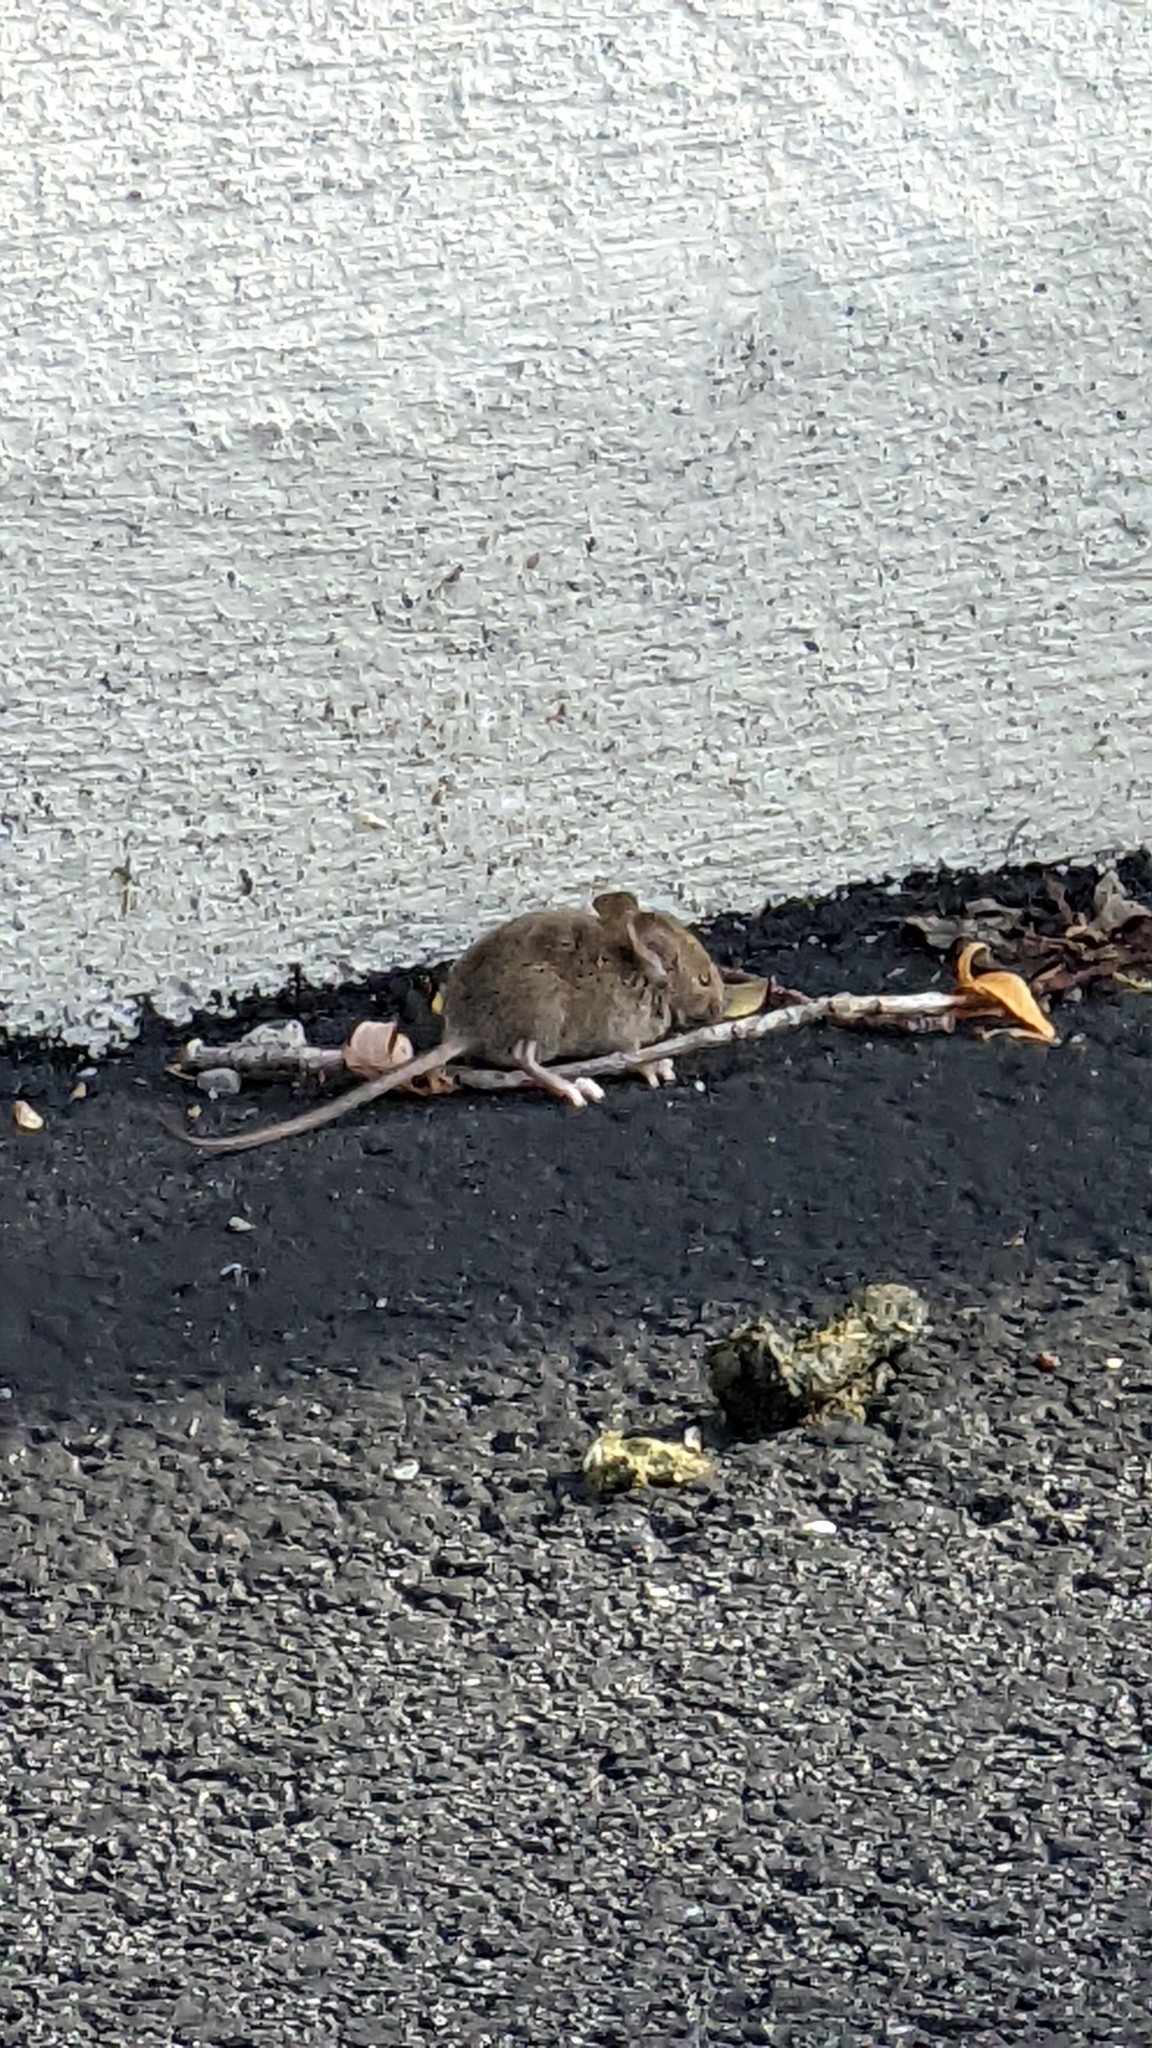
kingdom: Animalia
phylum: Chordata
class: Mammalia
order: Rodentia
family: Muridae
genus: Mus
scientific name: Mus musculus
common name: House mouse
